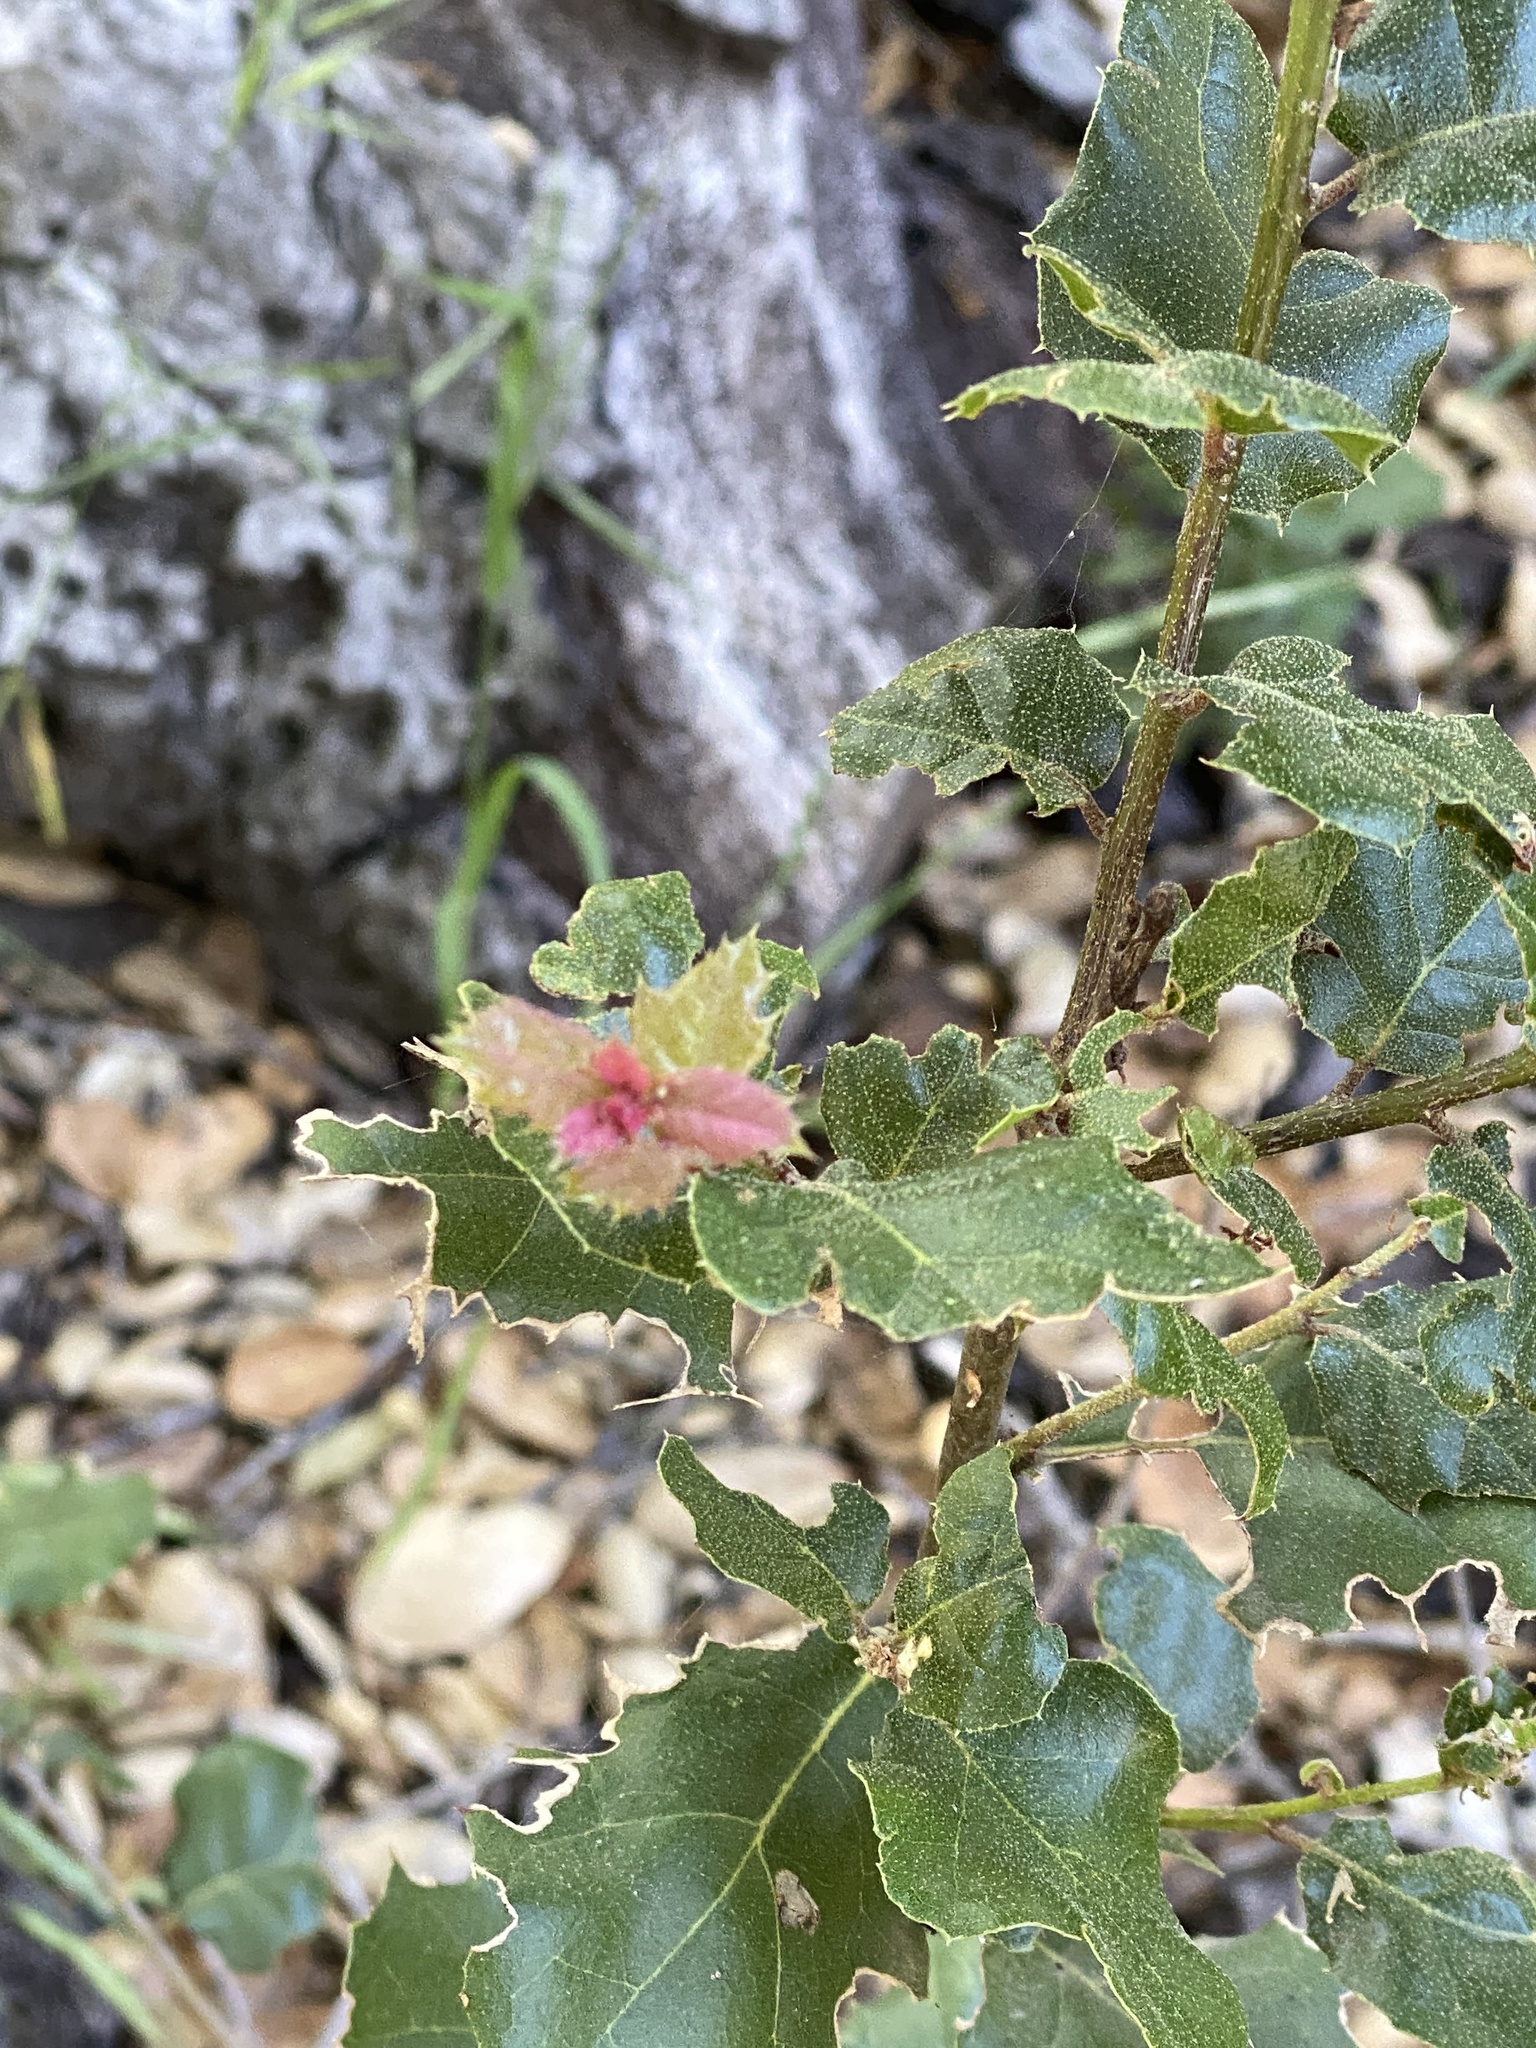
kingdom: Plantae
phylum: Tracheophyta
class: Magnoliopsida
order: Fagales
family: Fagaceae
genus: Quercus
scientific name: Quercus berberidifolia
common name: California scrub oak
